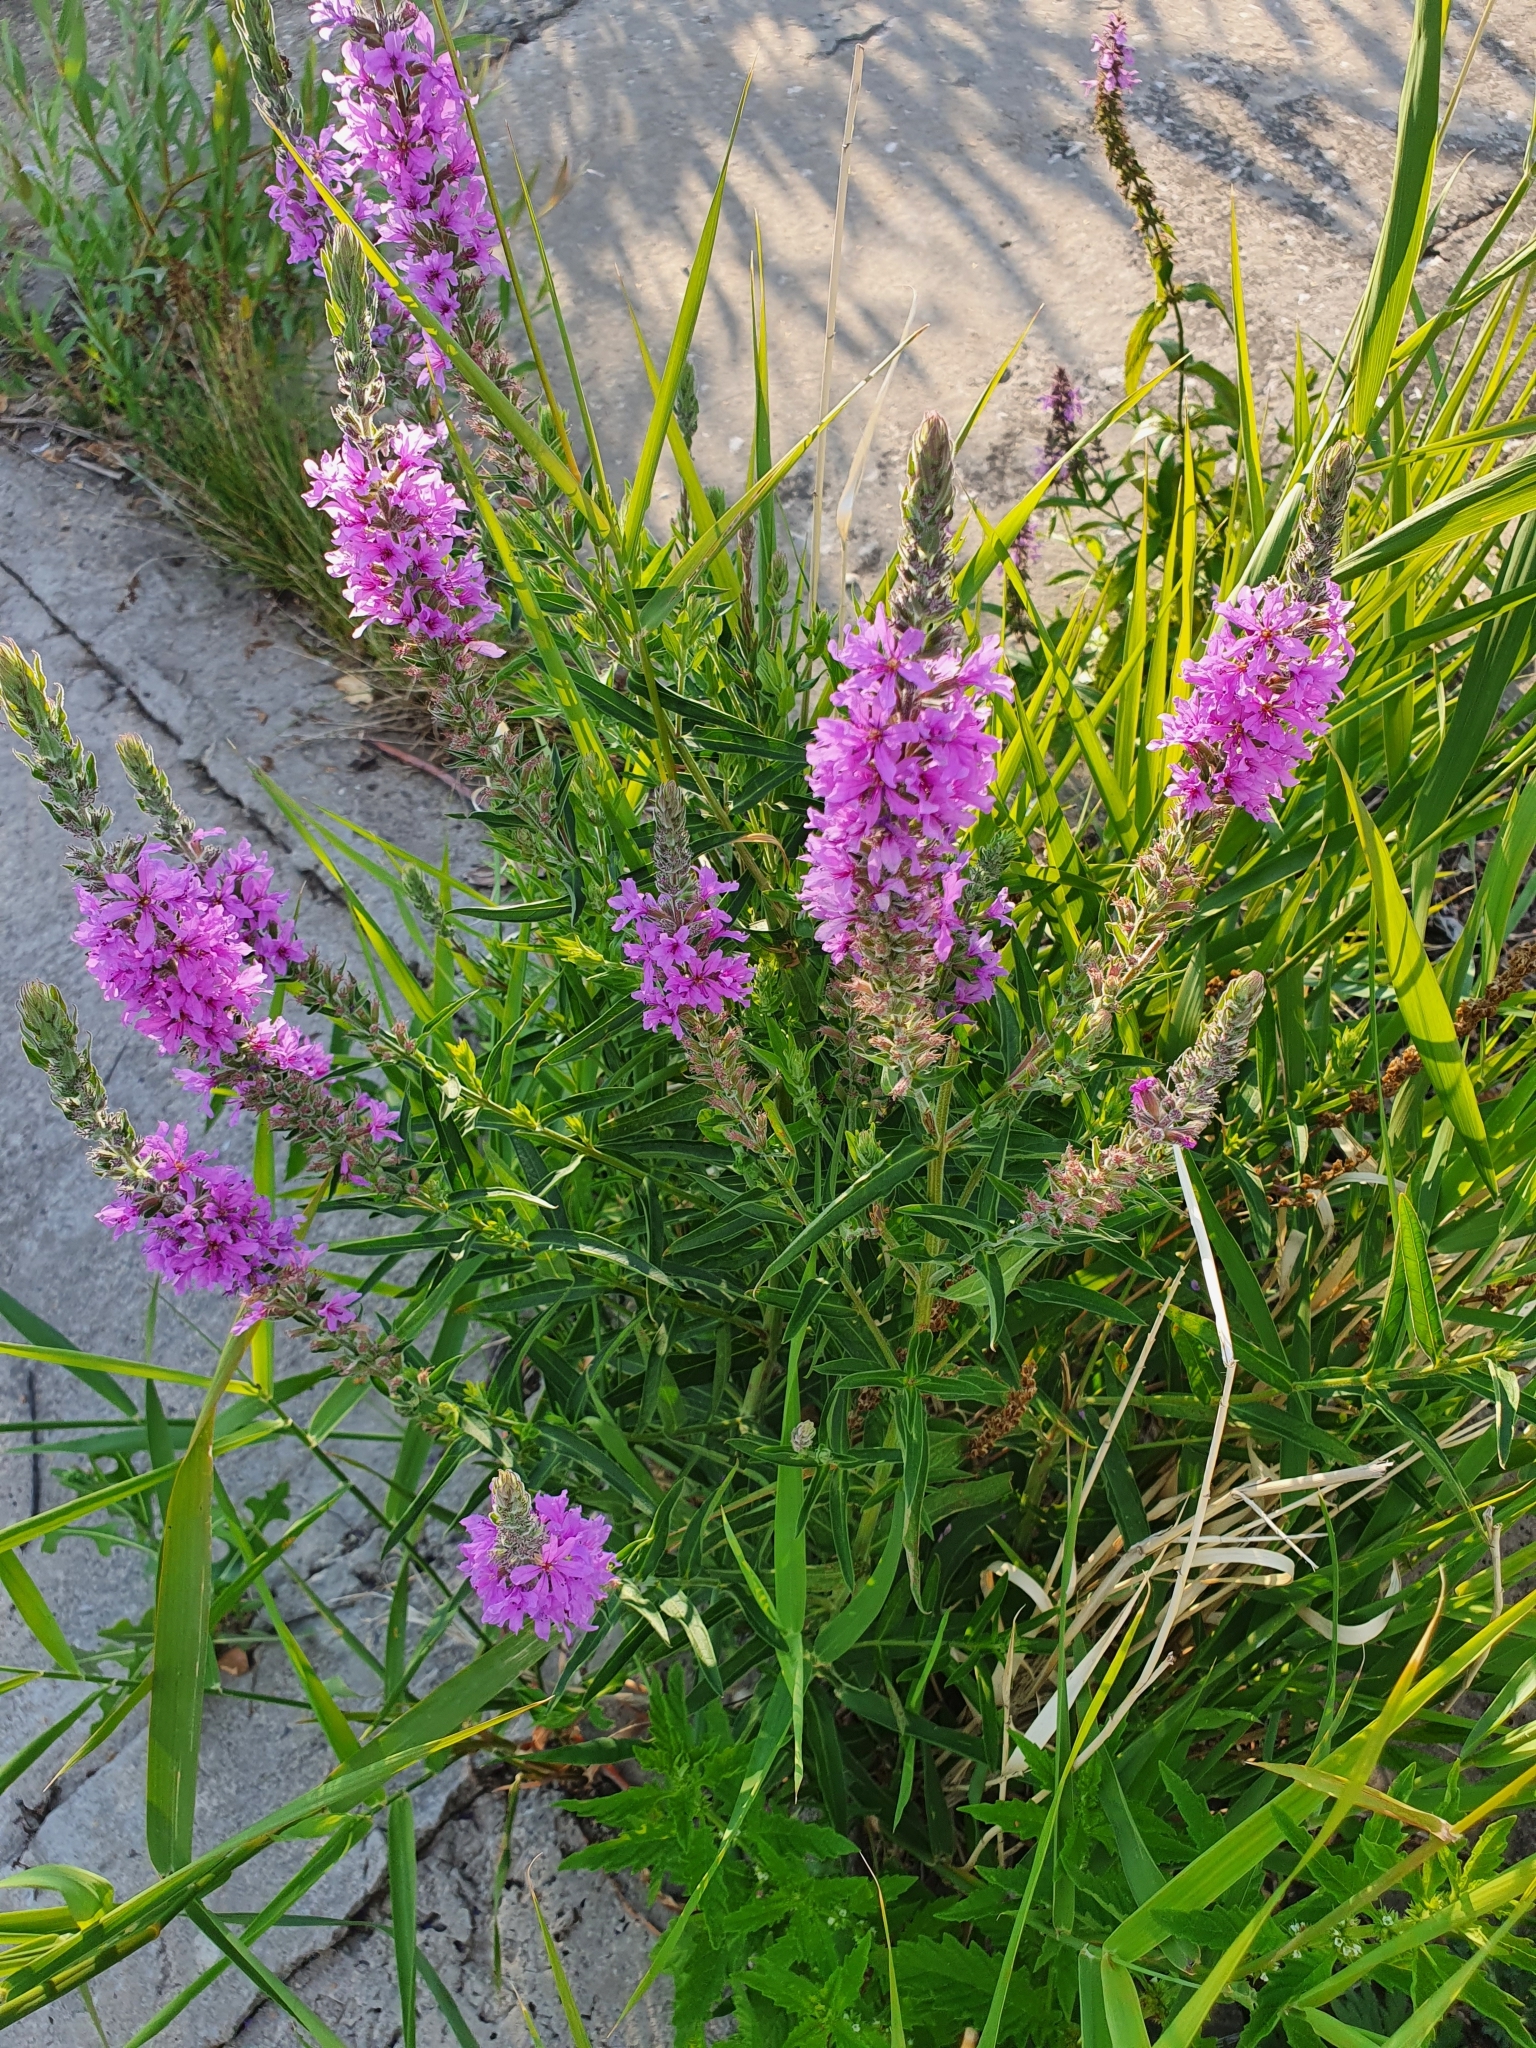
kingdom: Plantae
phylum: Tracheophyta
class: Magnoliopsida
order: Myrtales
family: Lythraceae
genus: Lythrum
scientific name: Lythrum salicaria
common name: Purple loosestrife
